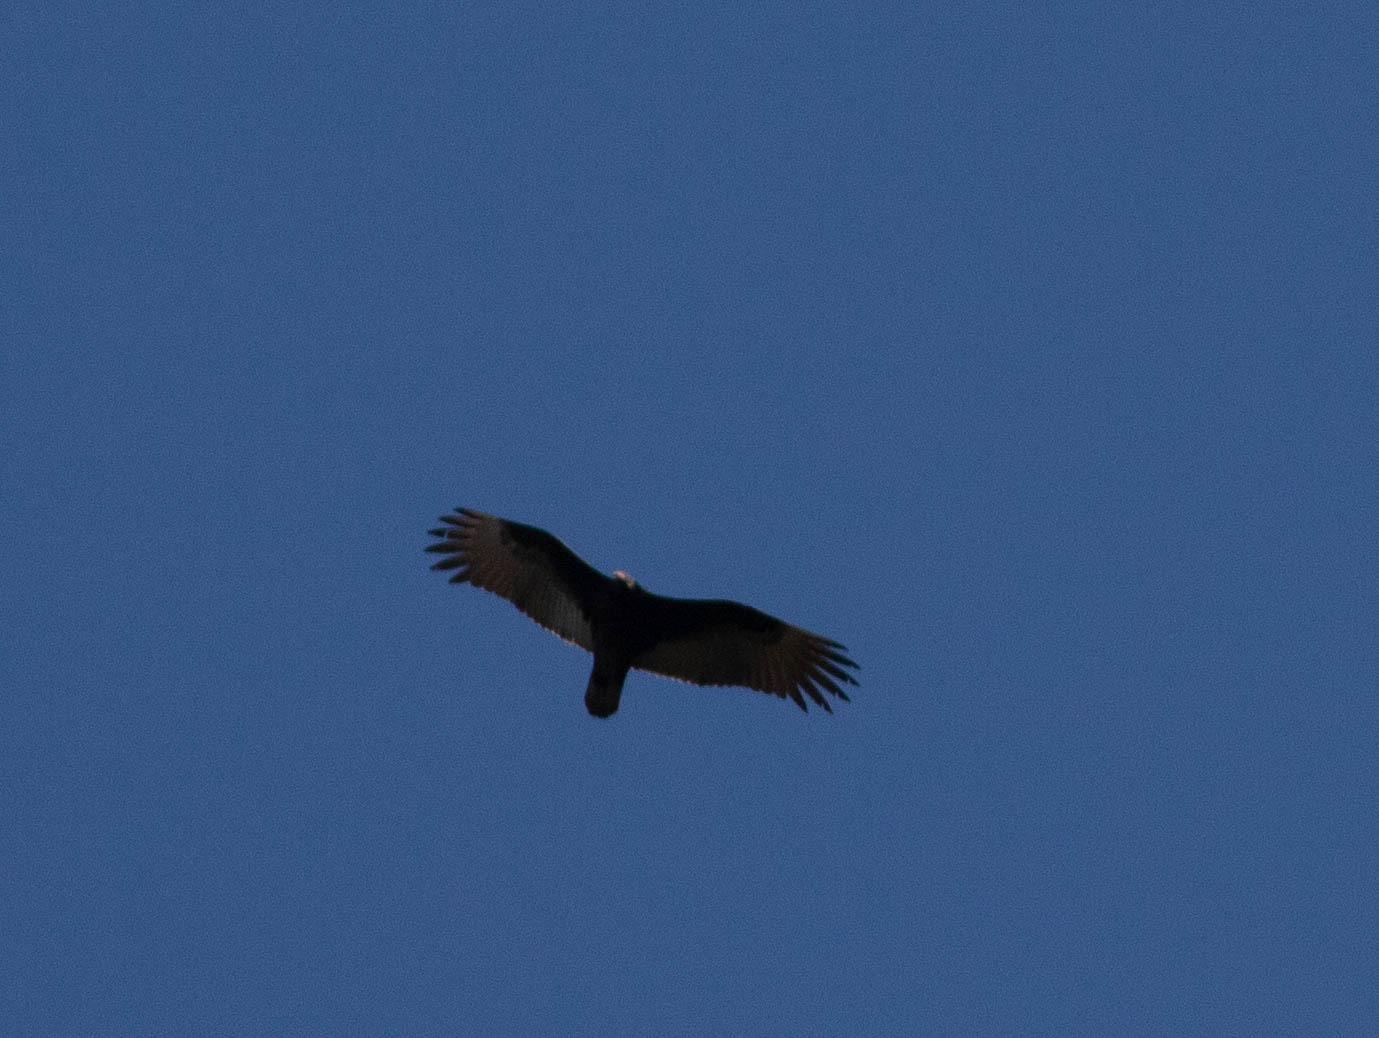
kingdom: Animalia
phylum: Chordata
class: Aves
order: Accipitriformes
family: Cathartidae
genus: Cathartes
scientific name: Cathartes aura
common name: Turkey vulture
